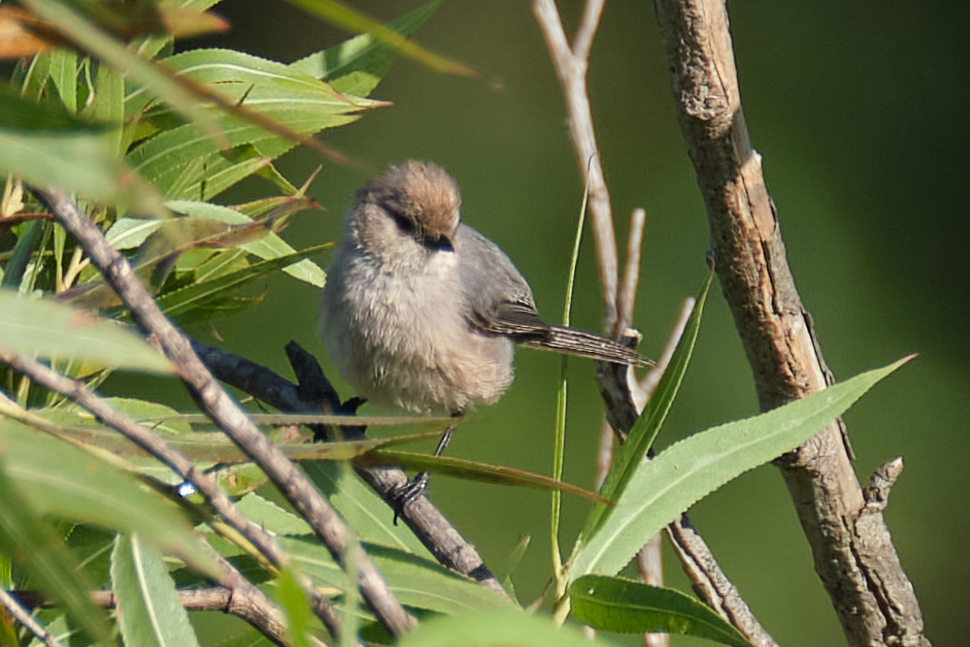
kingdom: Animalia
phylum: Chordata
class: Aves
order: Passeriformes
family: Aegithalidae
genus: Psaltriparus
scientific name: Psaltriparus minimus
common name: American bushtit
